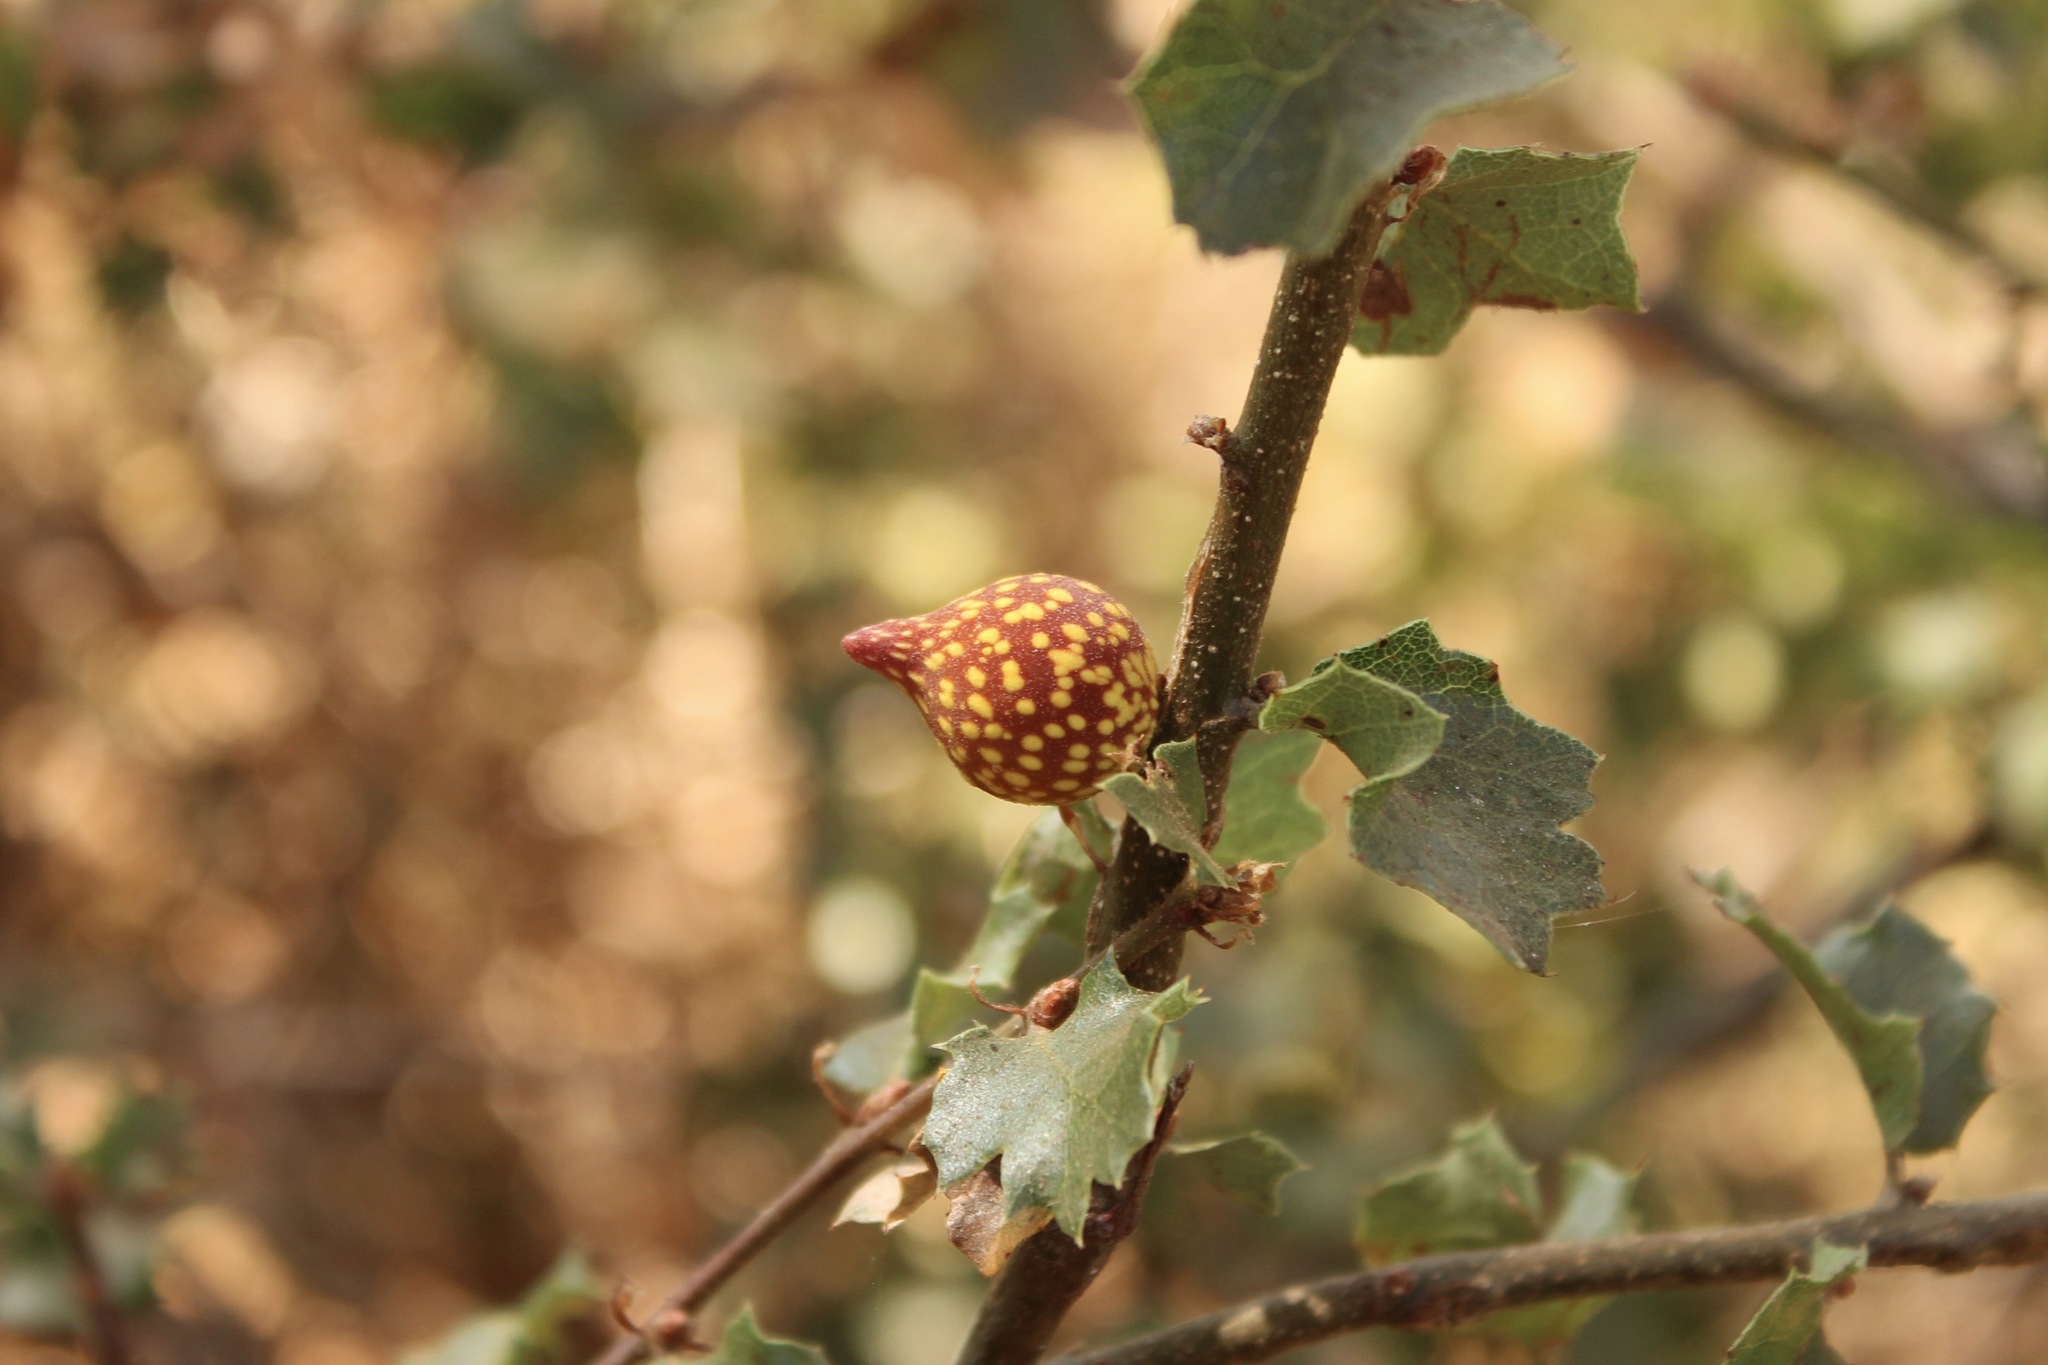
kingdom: Animalia
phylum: Arthropoda
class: Insecta
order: Hymenoptera
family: Cynipidae
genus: Burnettweldia
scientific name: Burnettweldia
